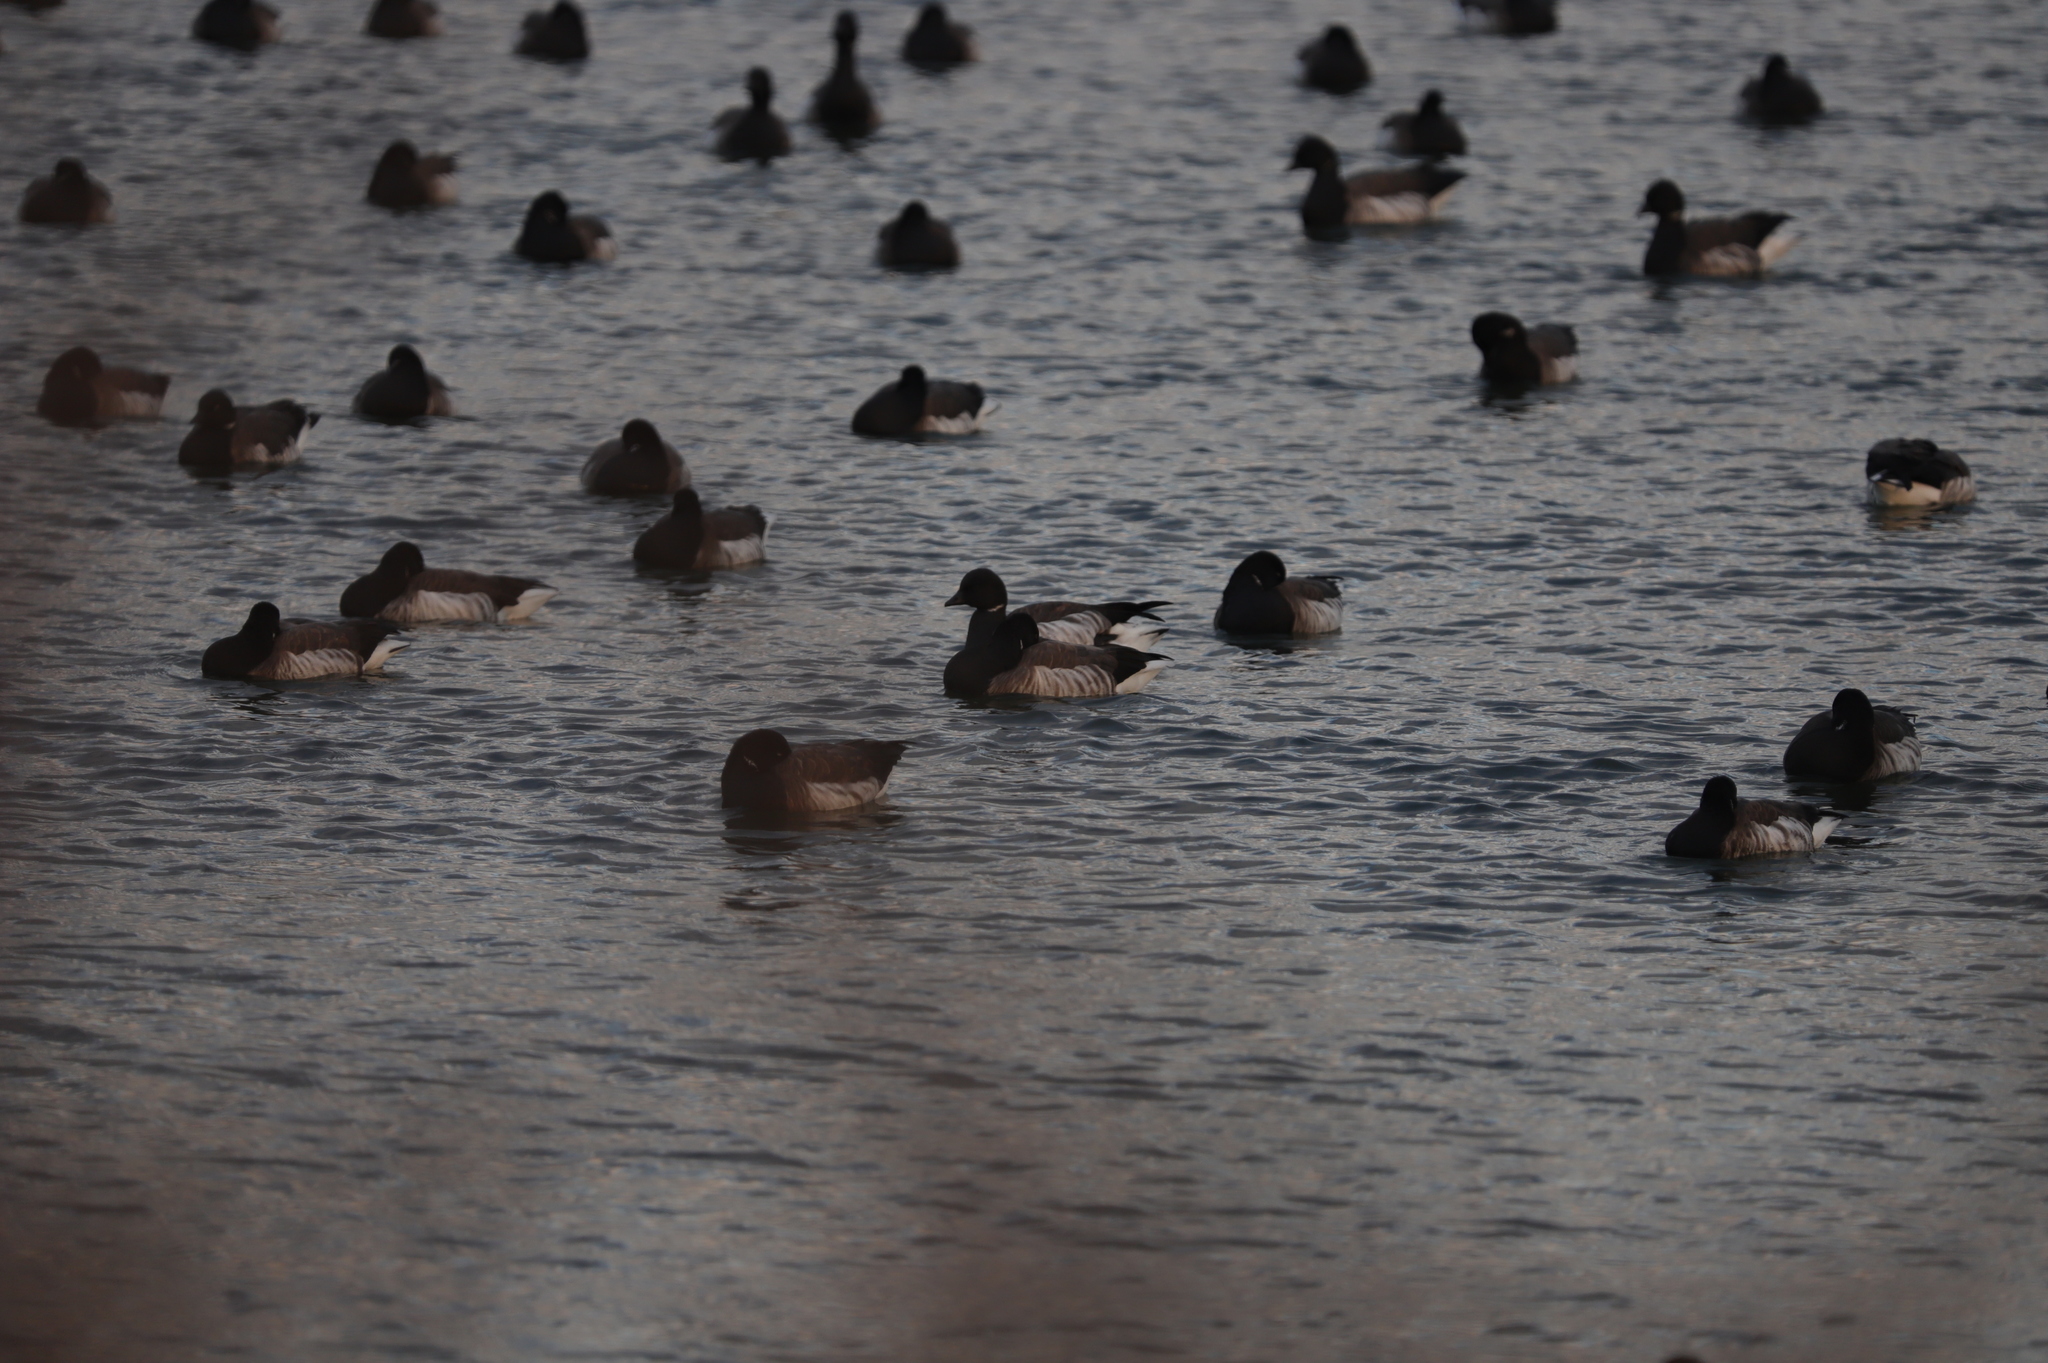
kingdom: Animalia
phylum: Chordata
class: Aves
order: Anseriformes
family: Anatidae
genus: Branta
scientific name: Branta bernicla
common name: Brant goose
